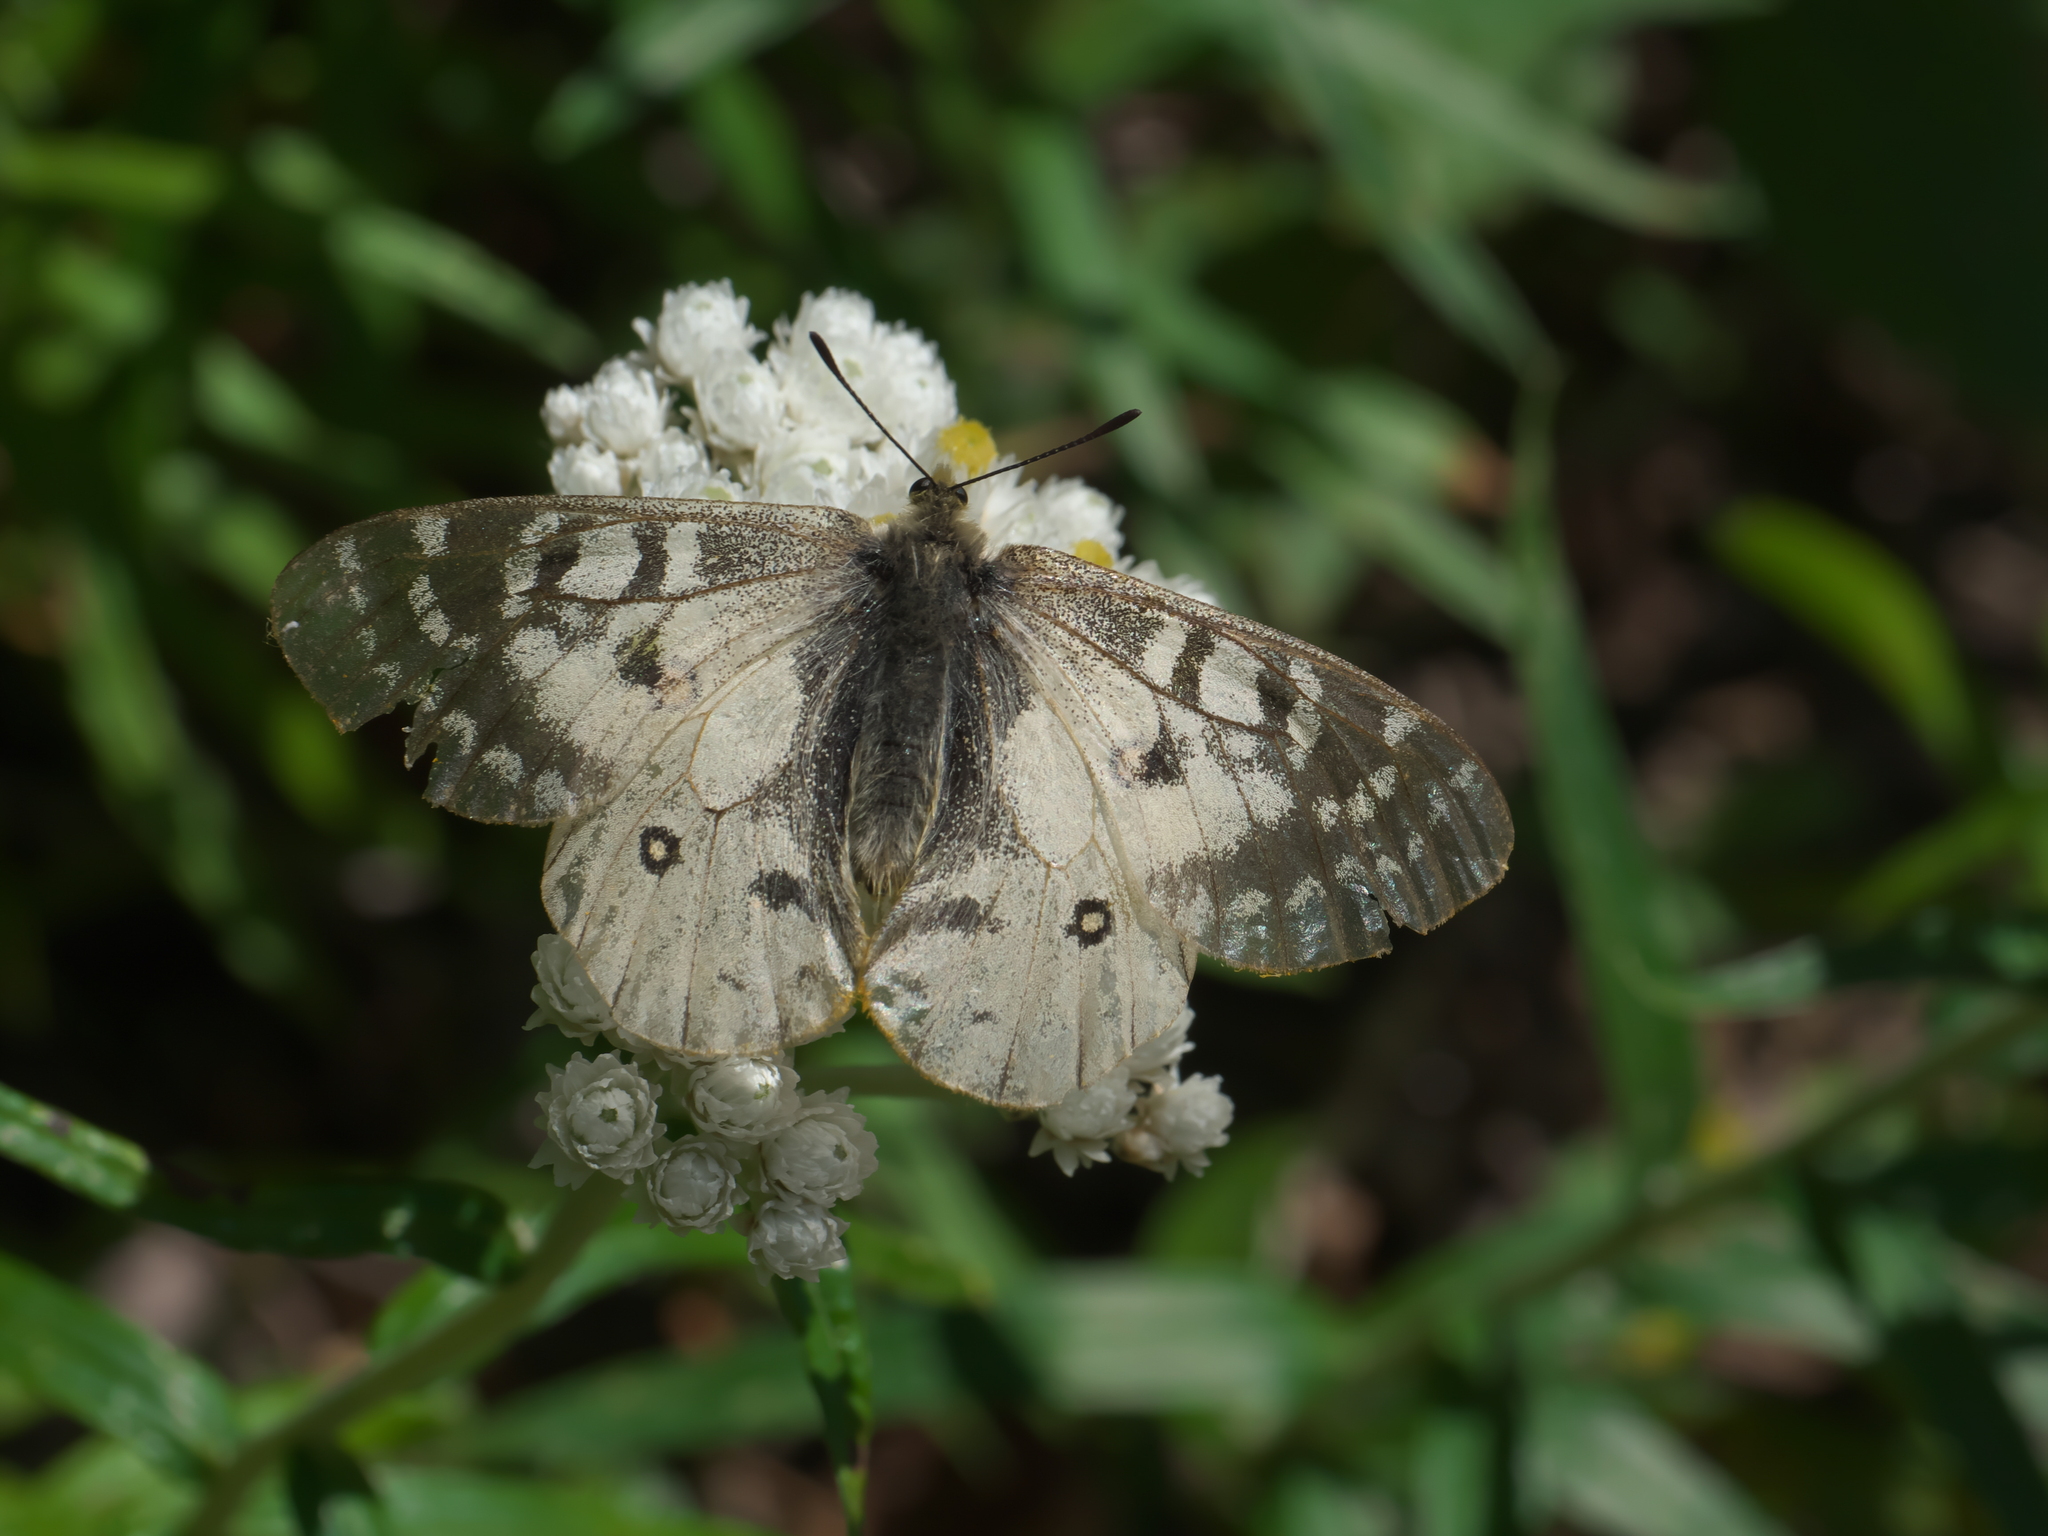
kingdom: Animalia
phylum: Arthropoda
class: Insecta
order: Lepidoptera
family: Papilionidae
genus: Parnassius
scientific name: Parnassius clodius
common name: American apollo
